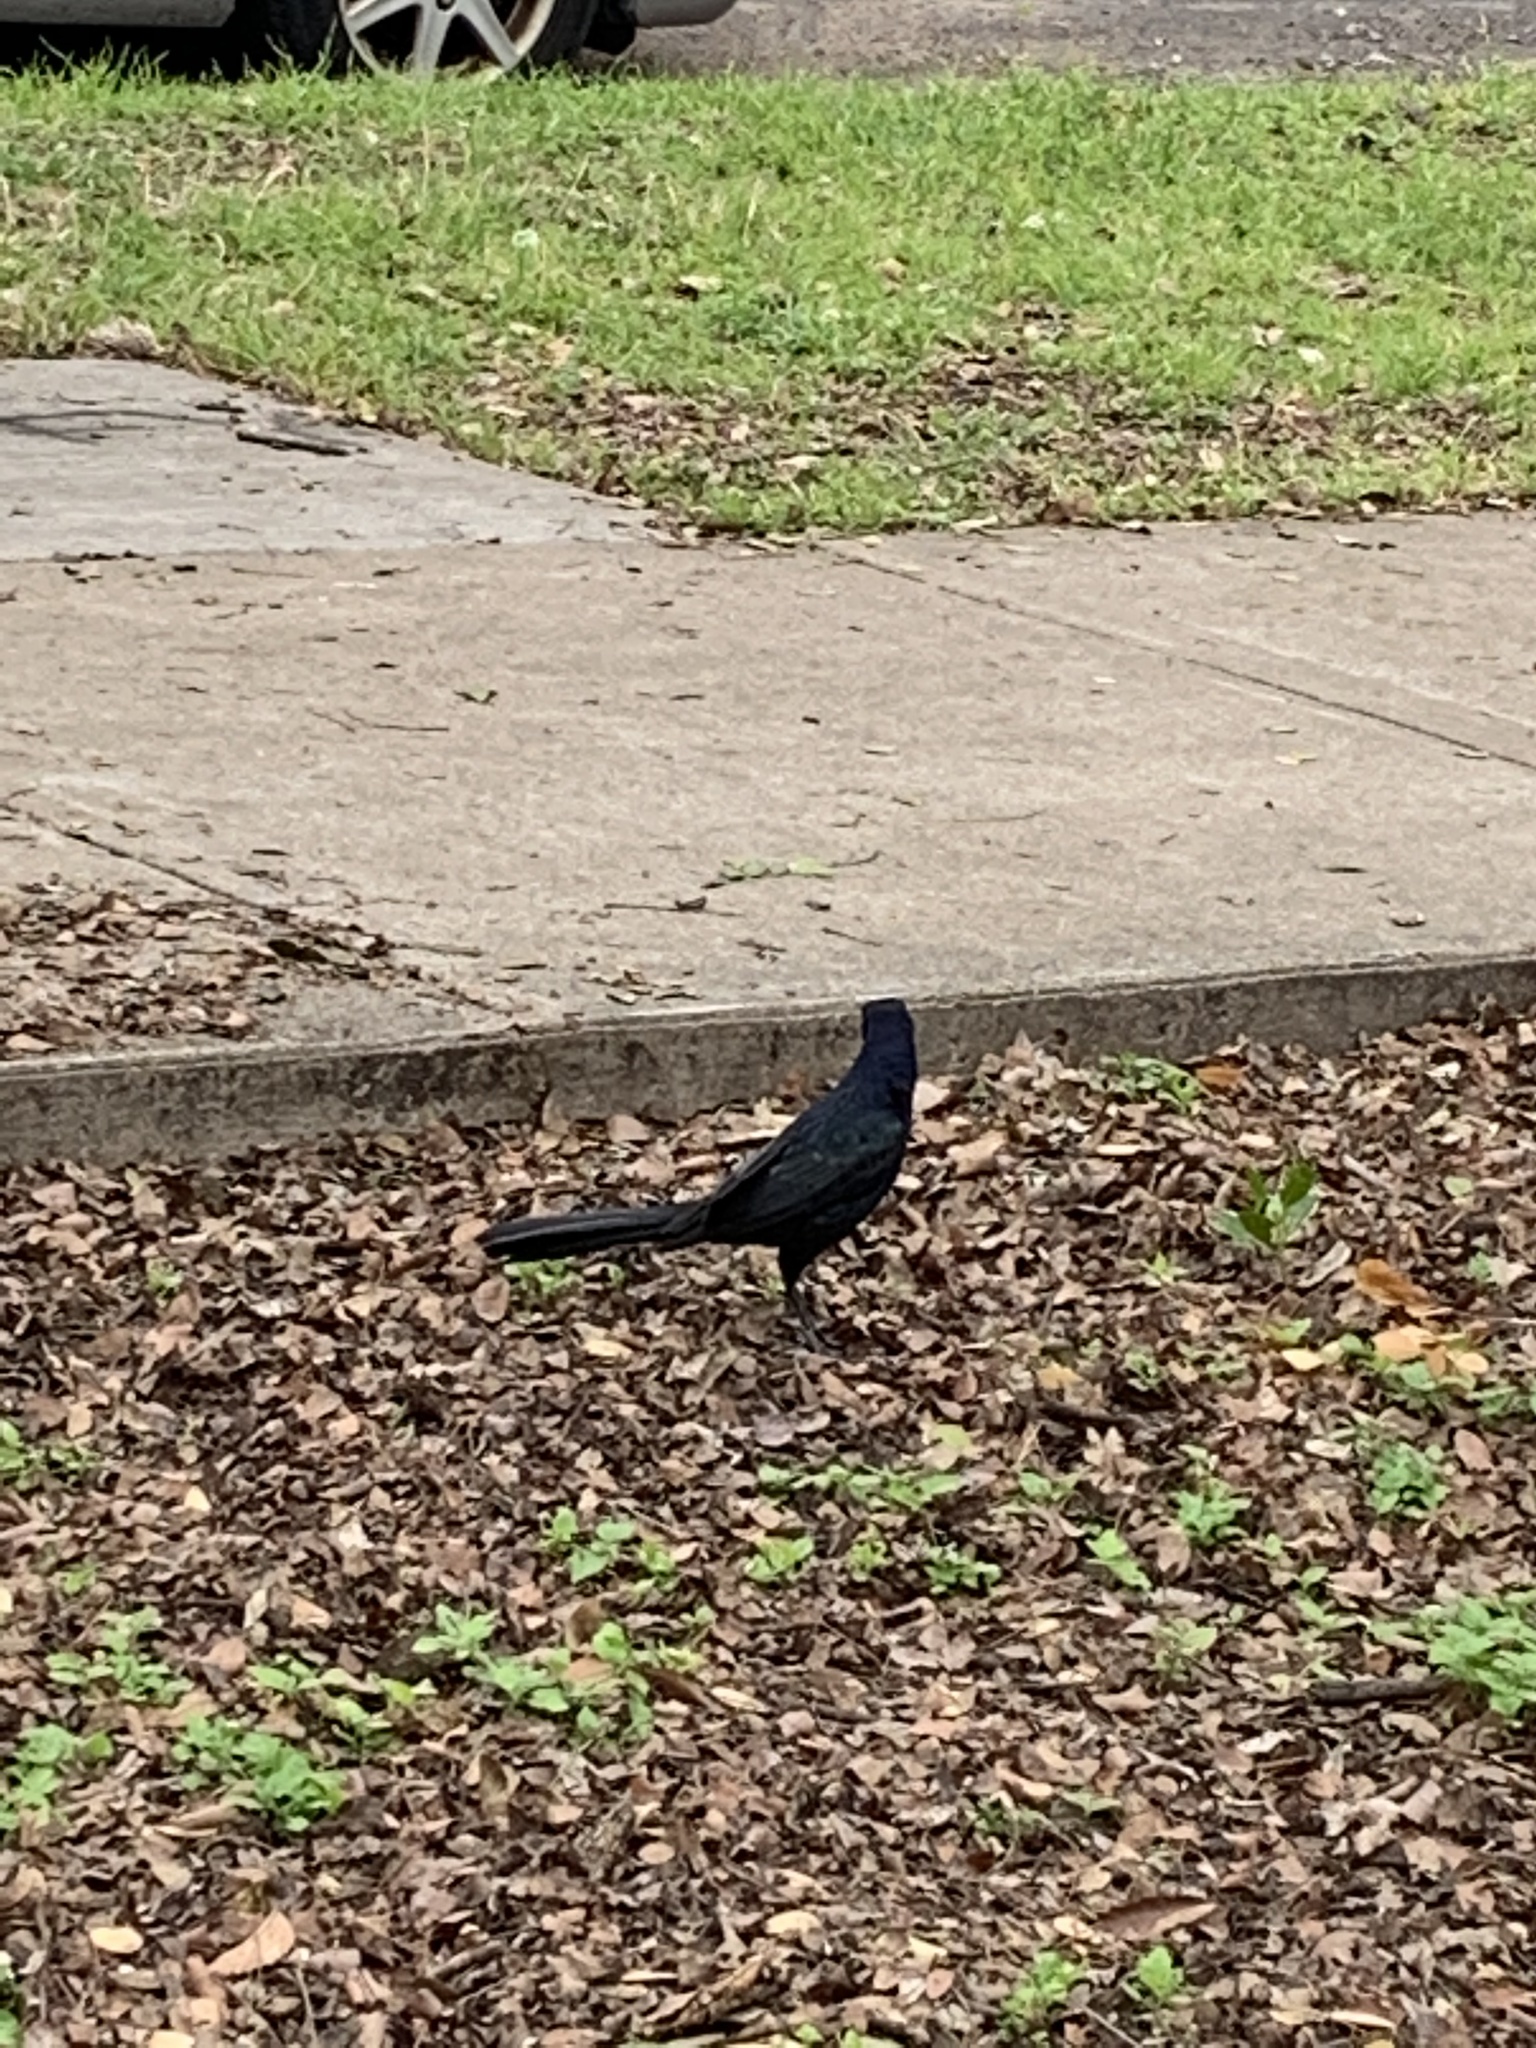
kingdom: Animalia
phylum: Chordata
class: Aves
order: Passeriformes
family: Icteridae
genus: Quiscalus
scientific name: Quiscalus mexicanus
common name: Great-tailed grackle
